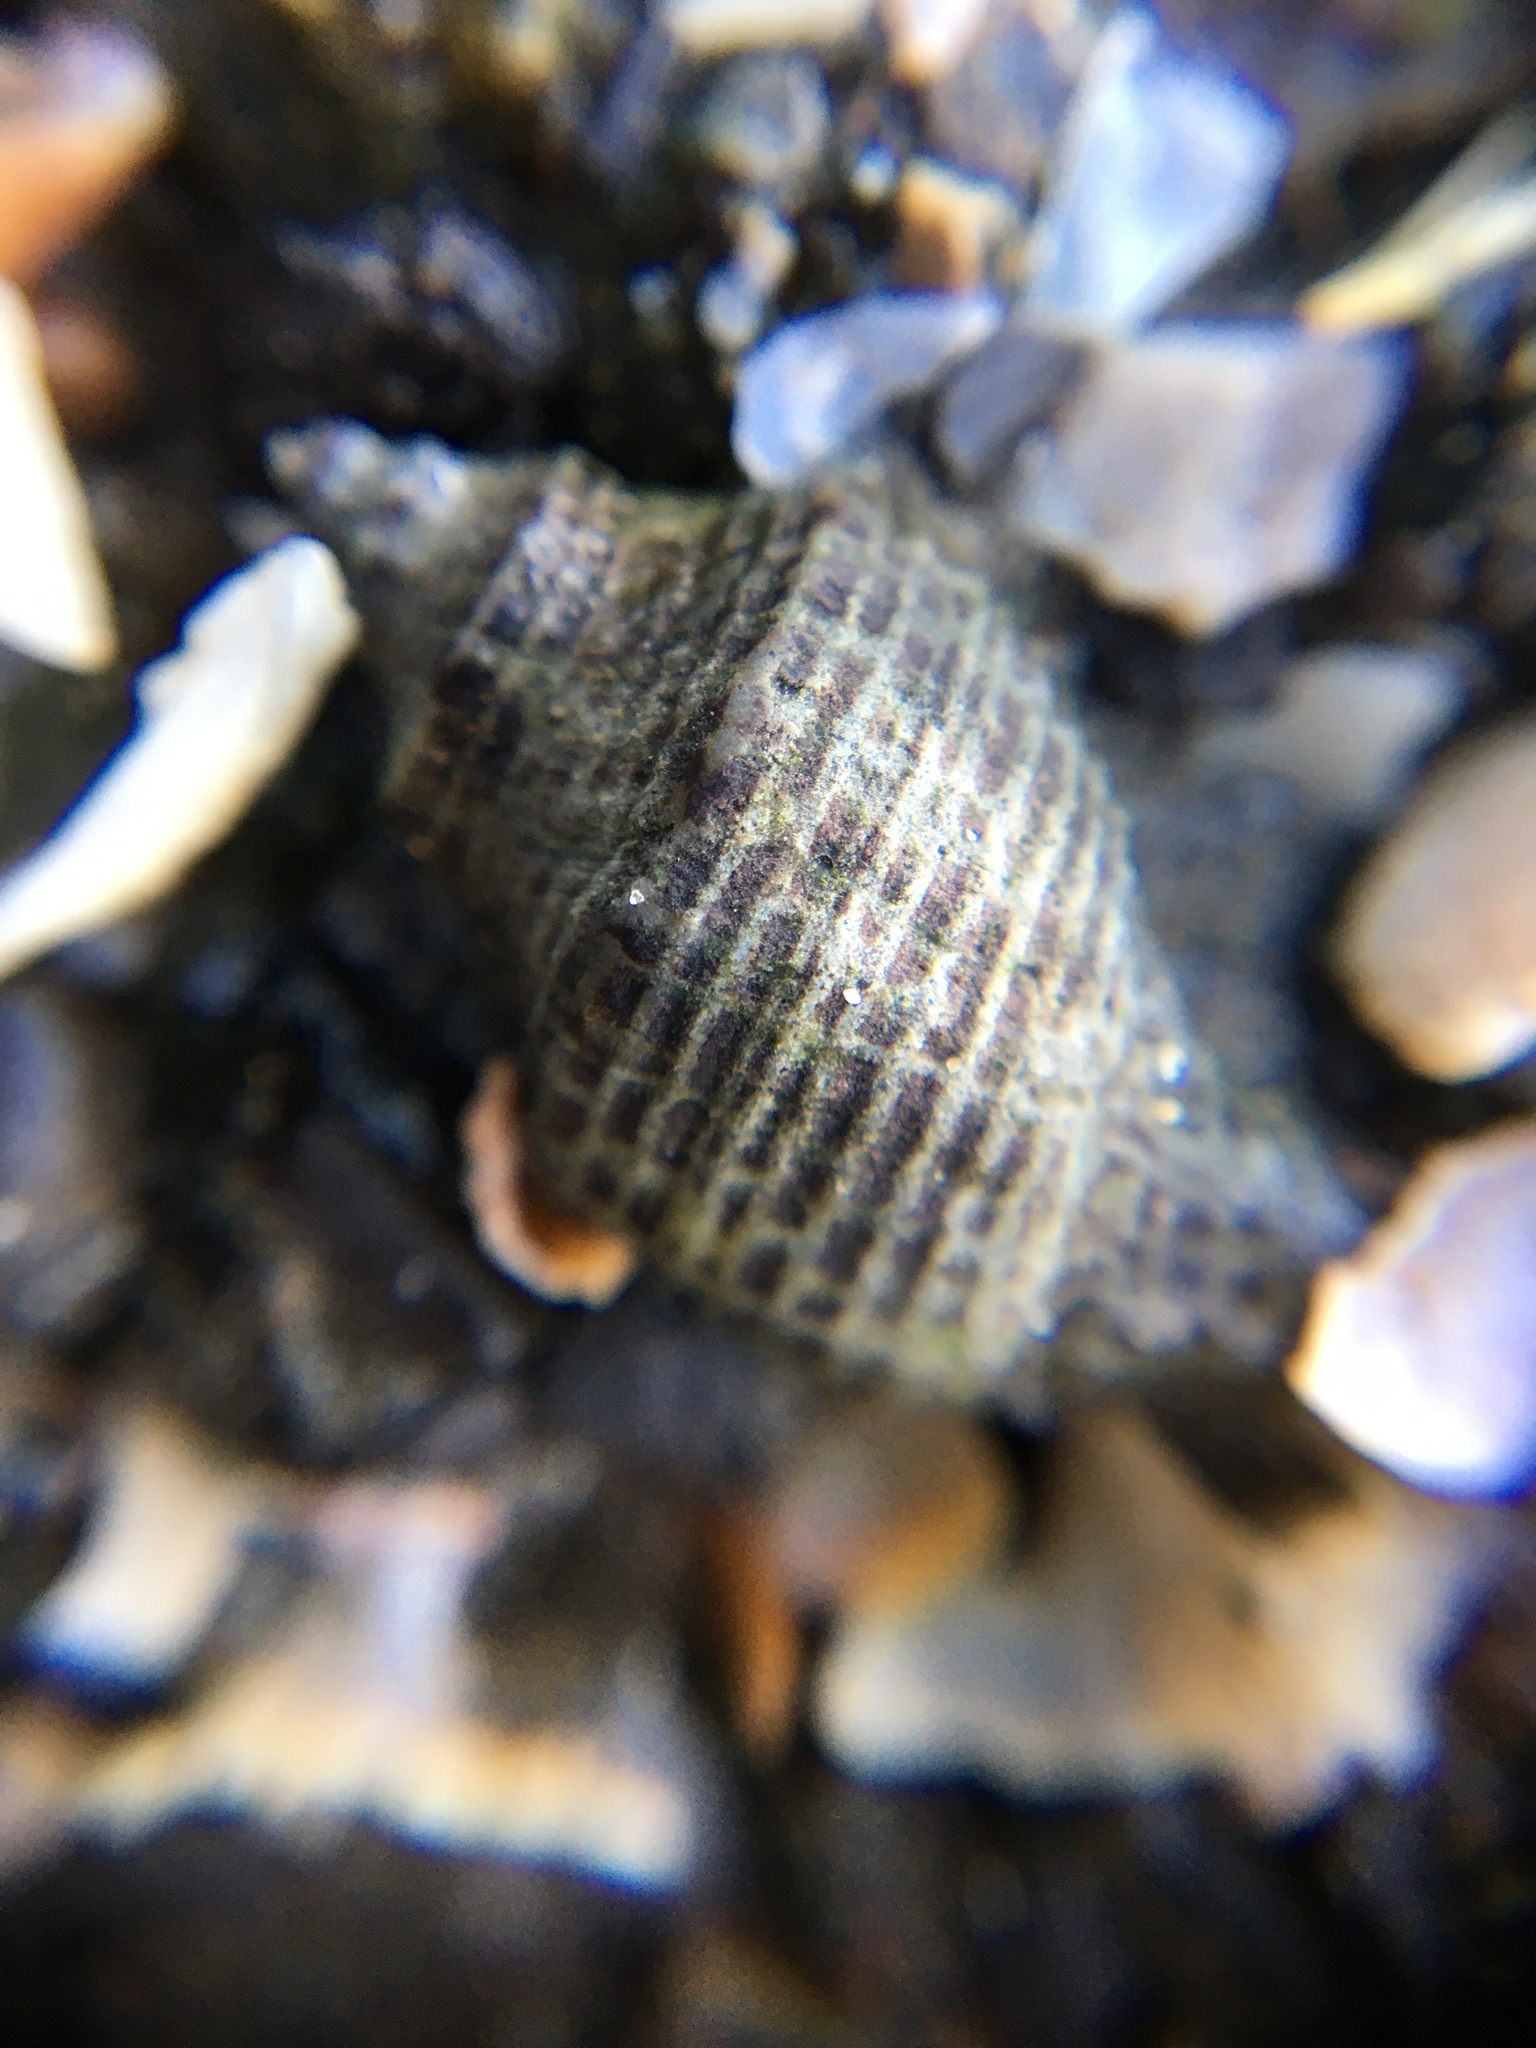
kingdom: Animalia
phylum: Mollusca
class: Gastropoda
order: Neogastropoda
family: Muricidae
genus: Acanthinucella
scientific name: Acanthinucella spirata
